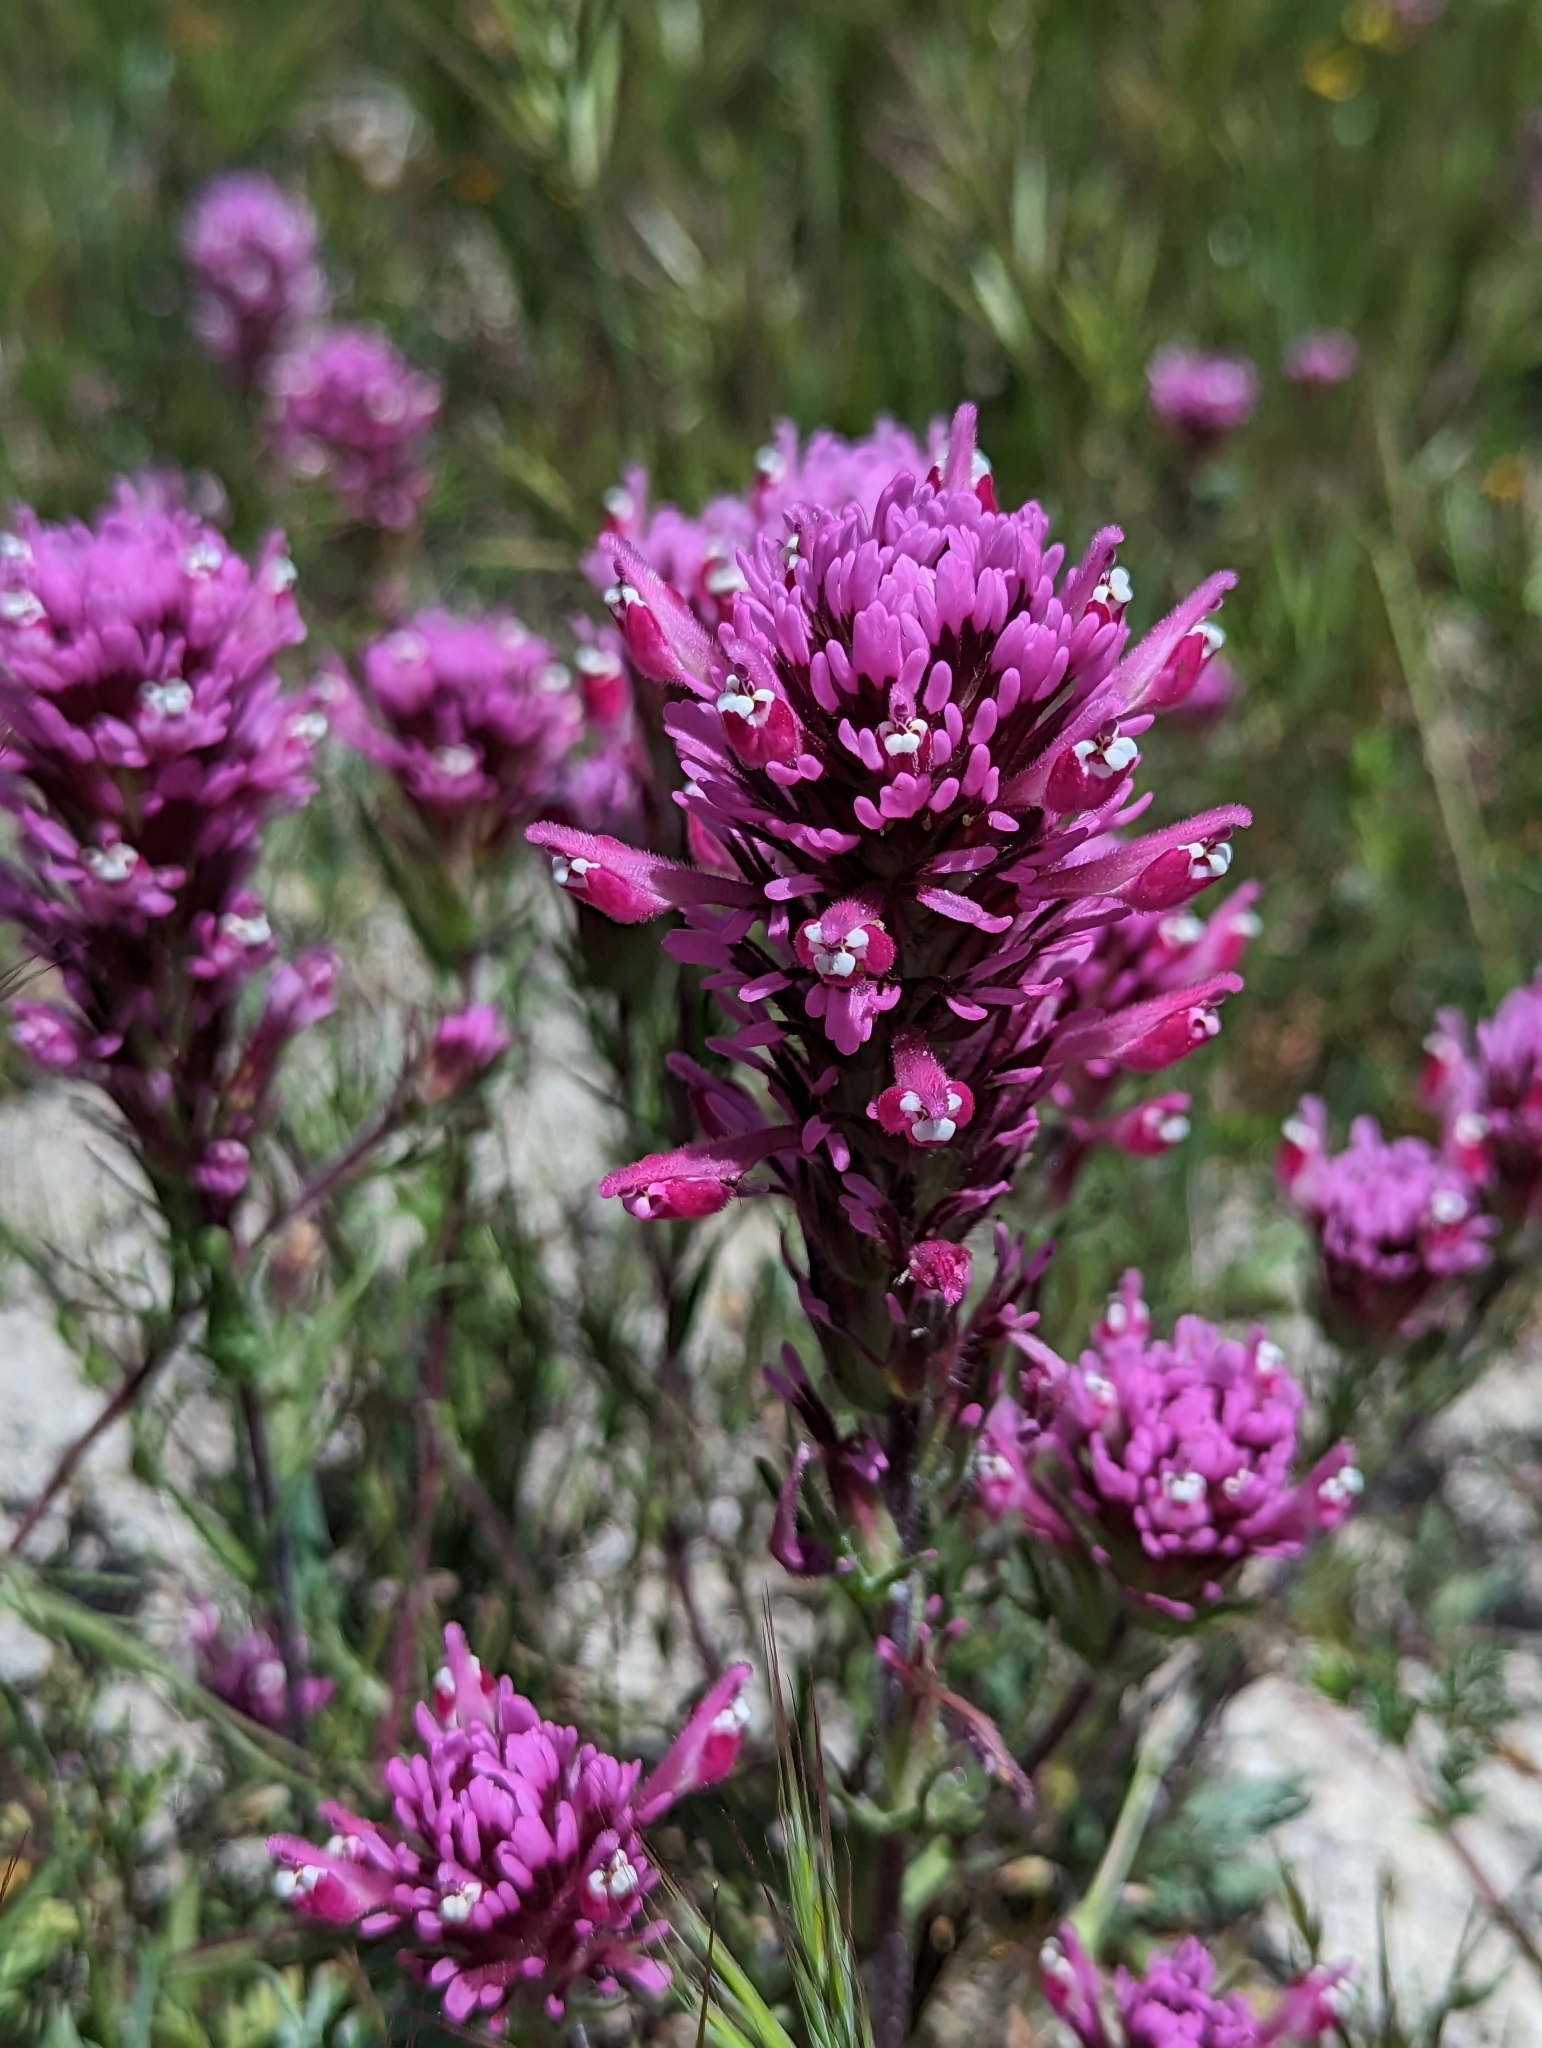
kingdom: Plantae
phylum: Tracheophyta
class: Magnoliopsida
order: Lamiales
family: Orobanchaceae
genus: Castilleja
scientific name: Castilleja exserta
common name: Purple owl-clover
